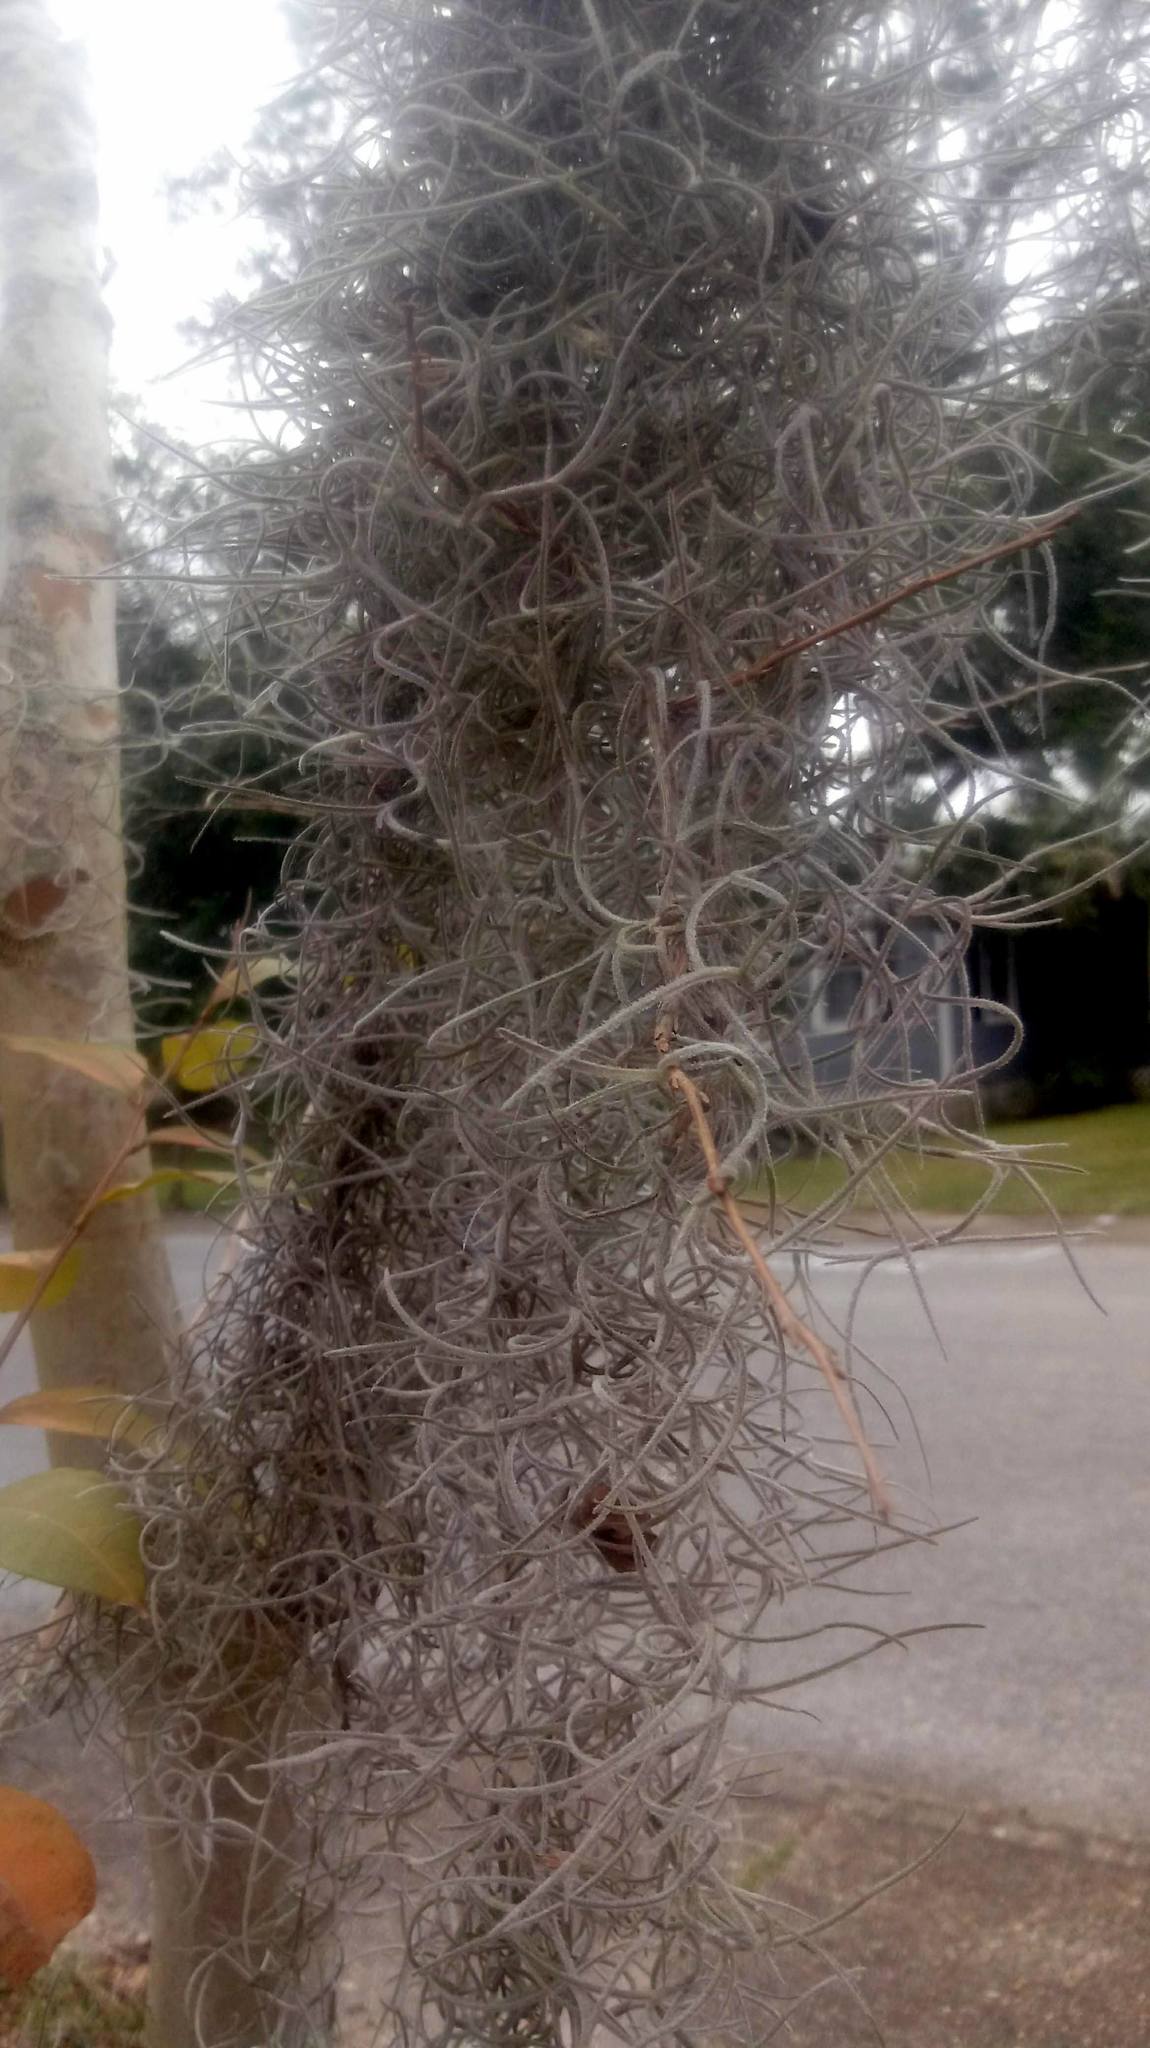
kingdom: Plantae
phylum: Tracheophyta
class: Liliopsida
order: Poales
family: Bromeliaceae
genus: Tillandsia
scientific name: Tillandsia usneoides
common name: Spanish moss
